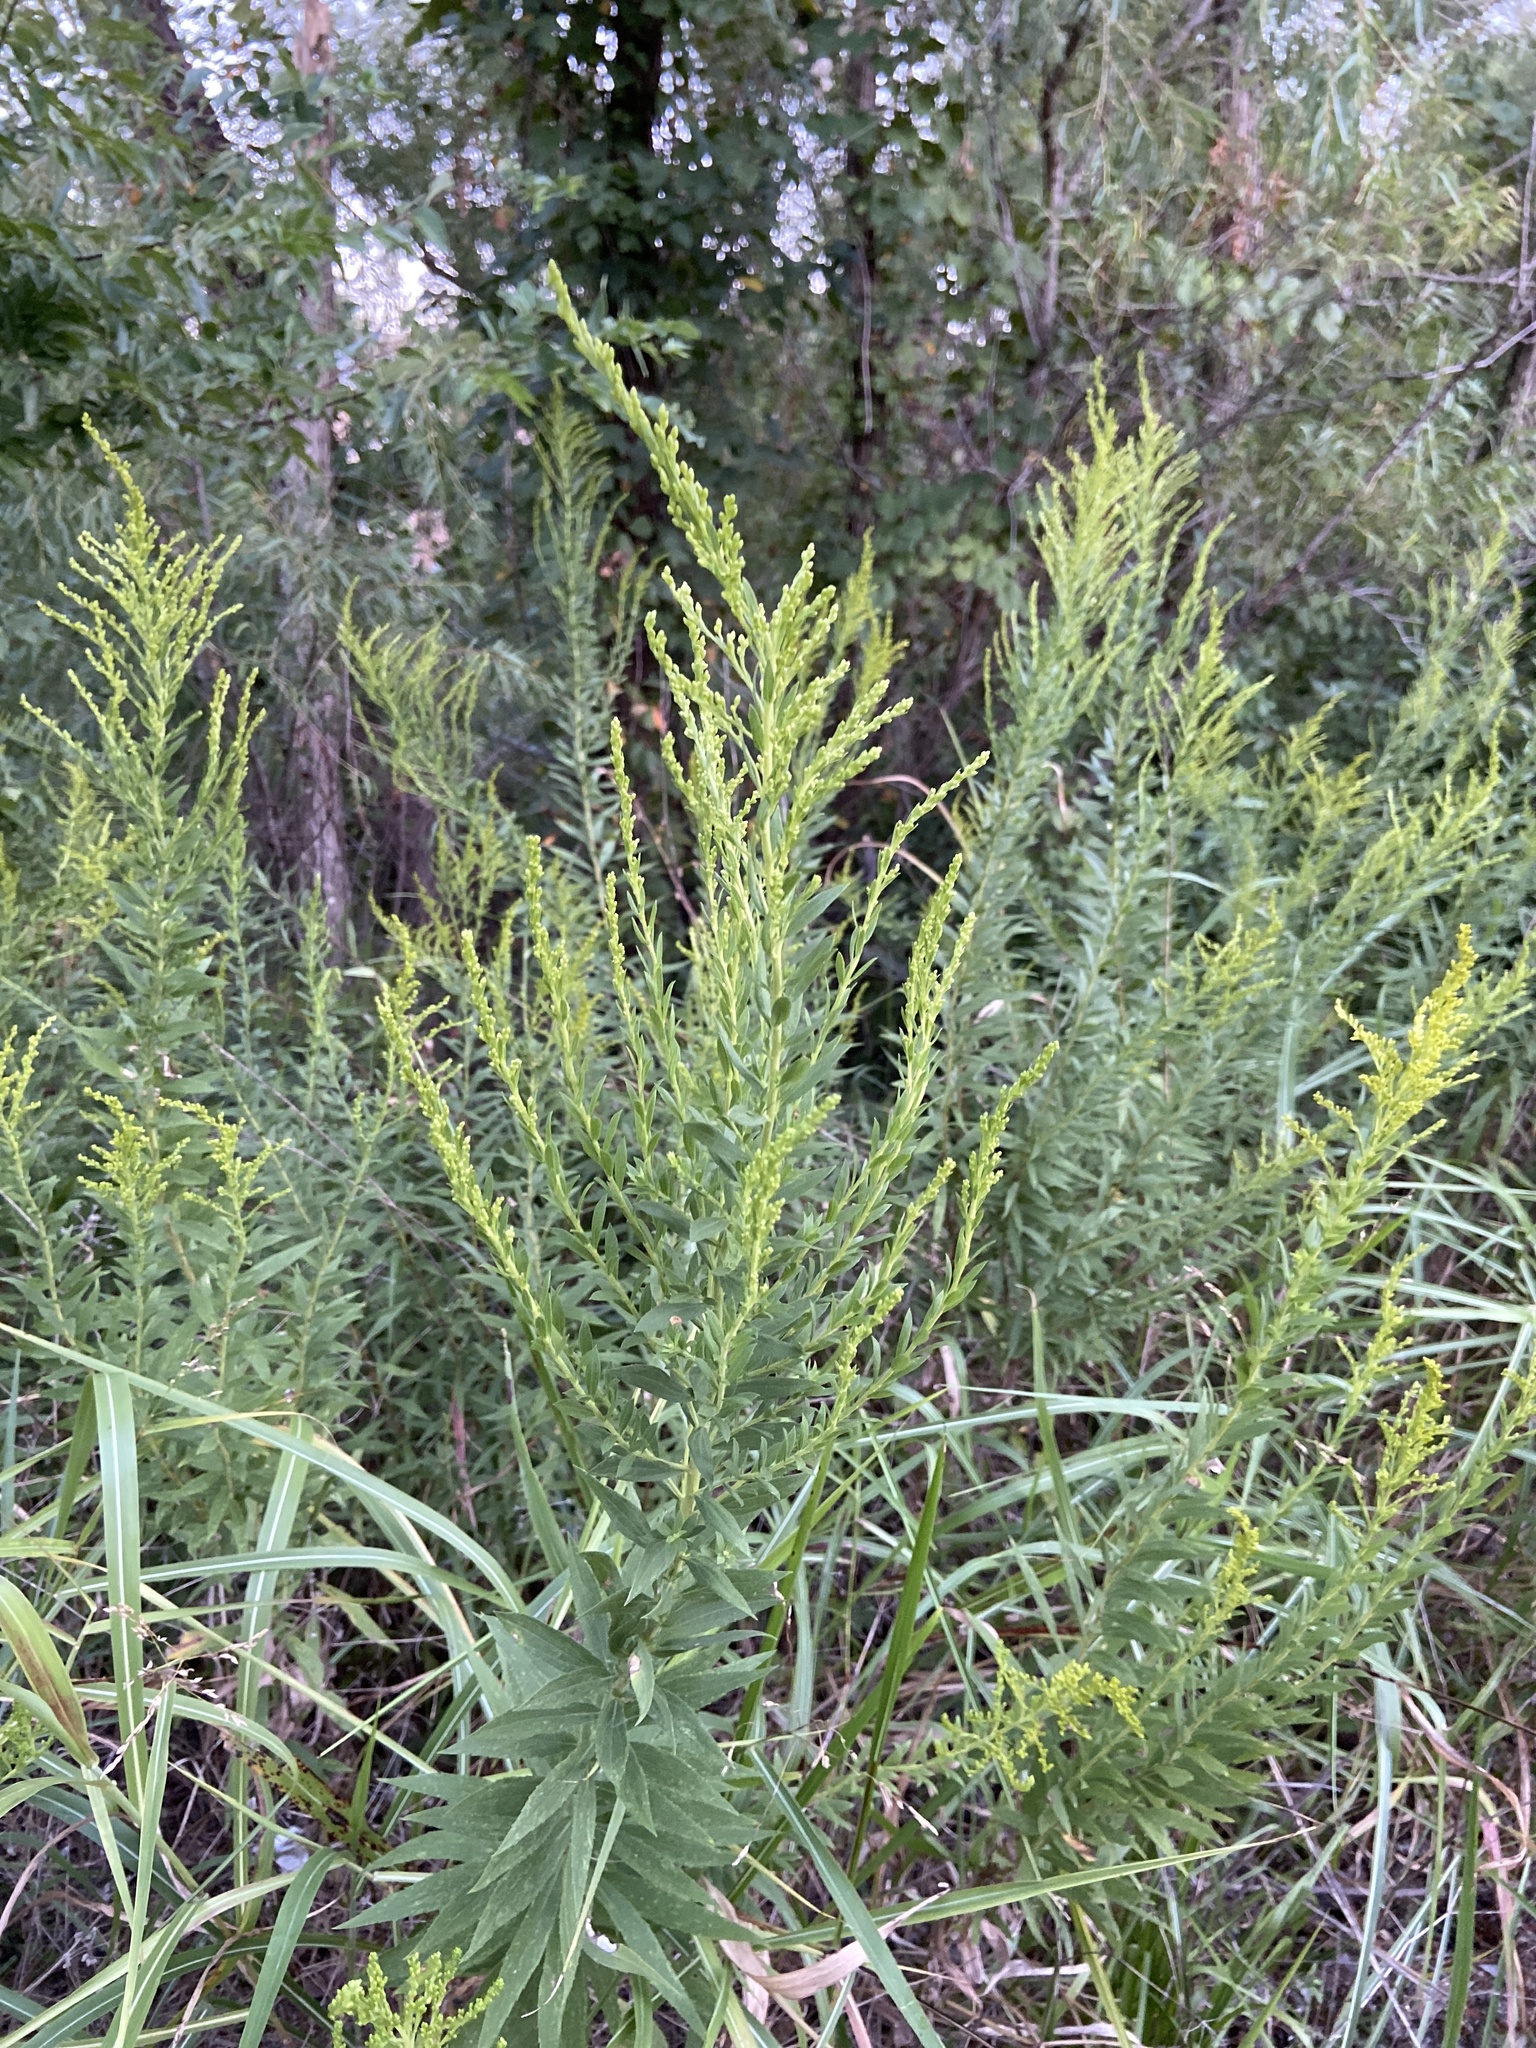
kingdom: Plantae
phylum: Tracheophyta
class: Magnoliopsida
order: Asterales
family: Asteraceae
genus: Solidago
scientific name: Solidago altissima
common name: Late goldenrod
